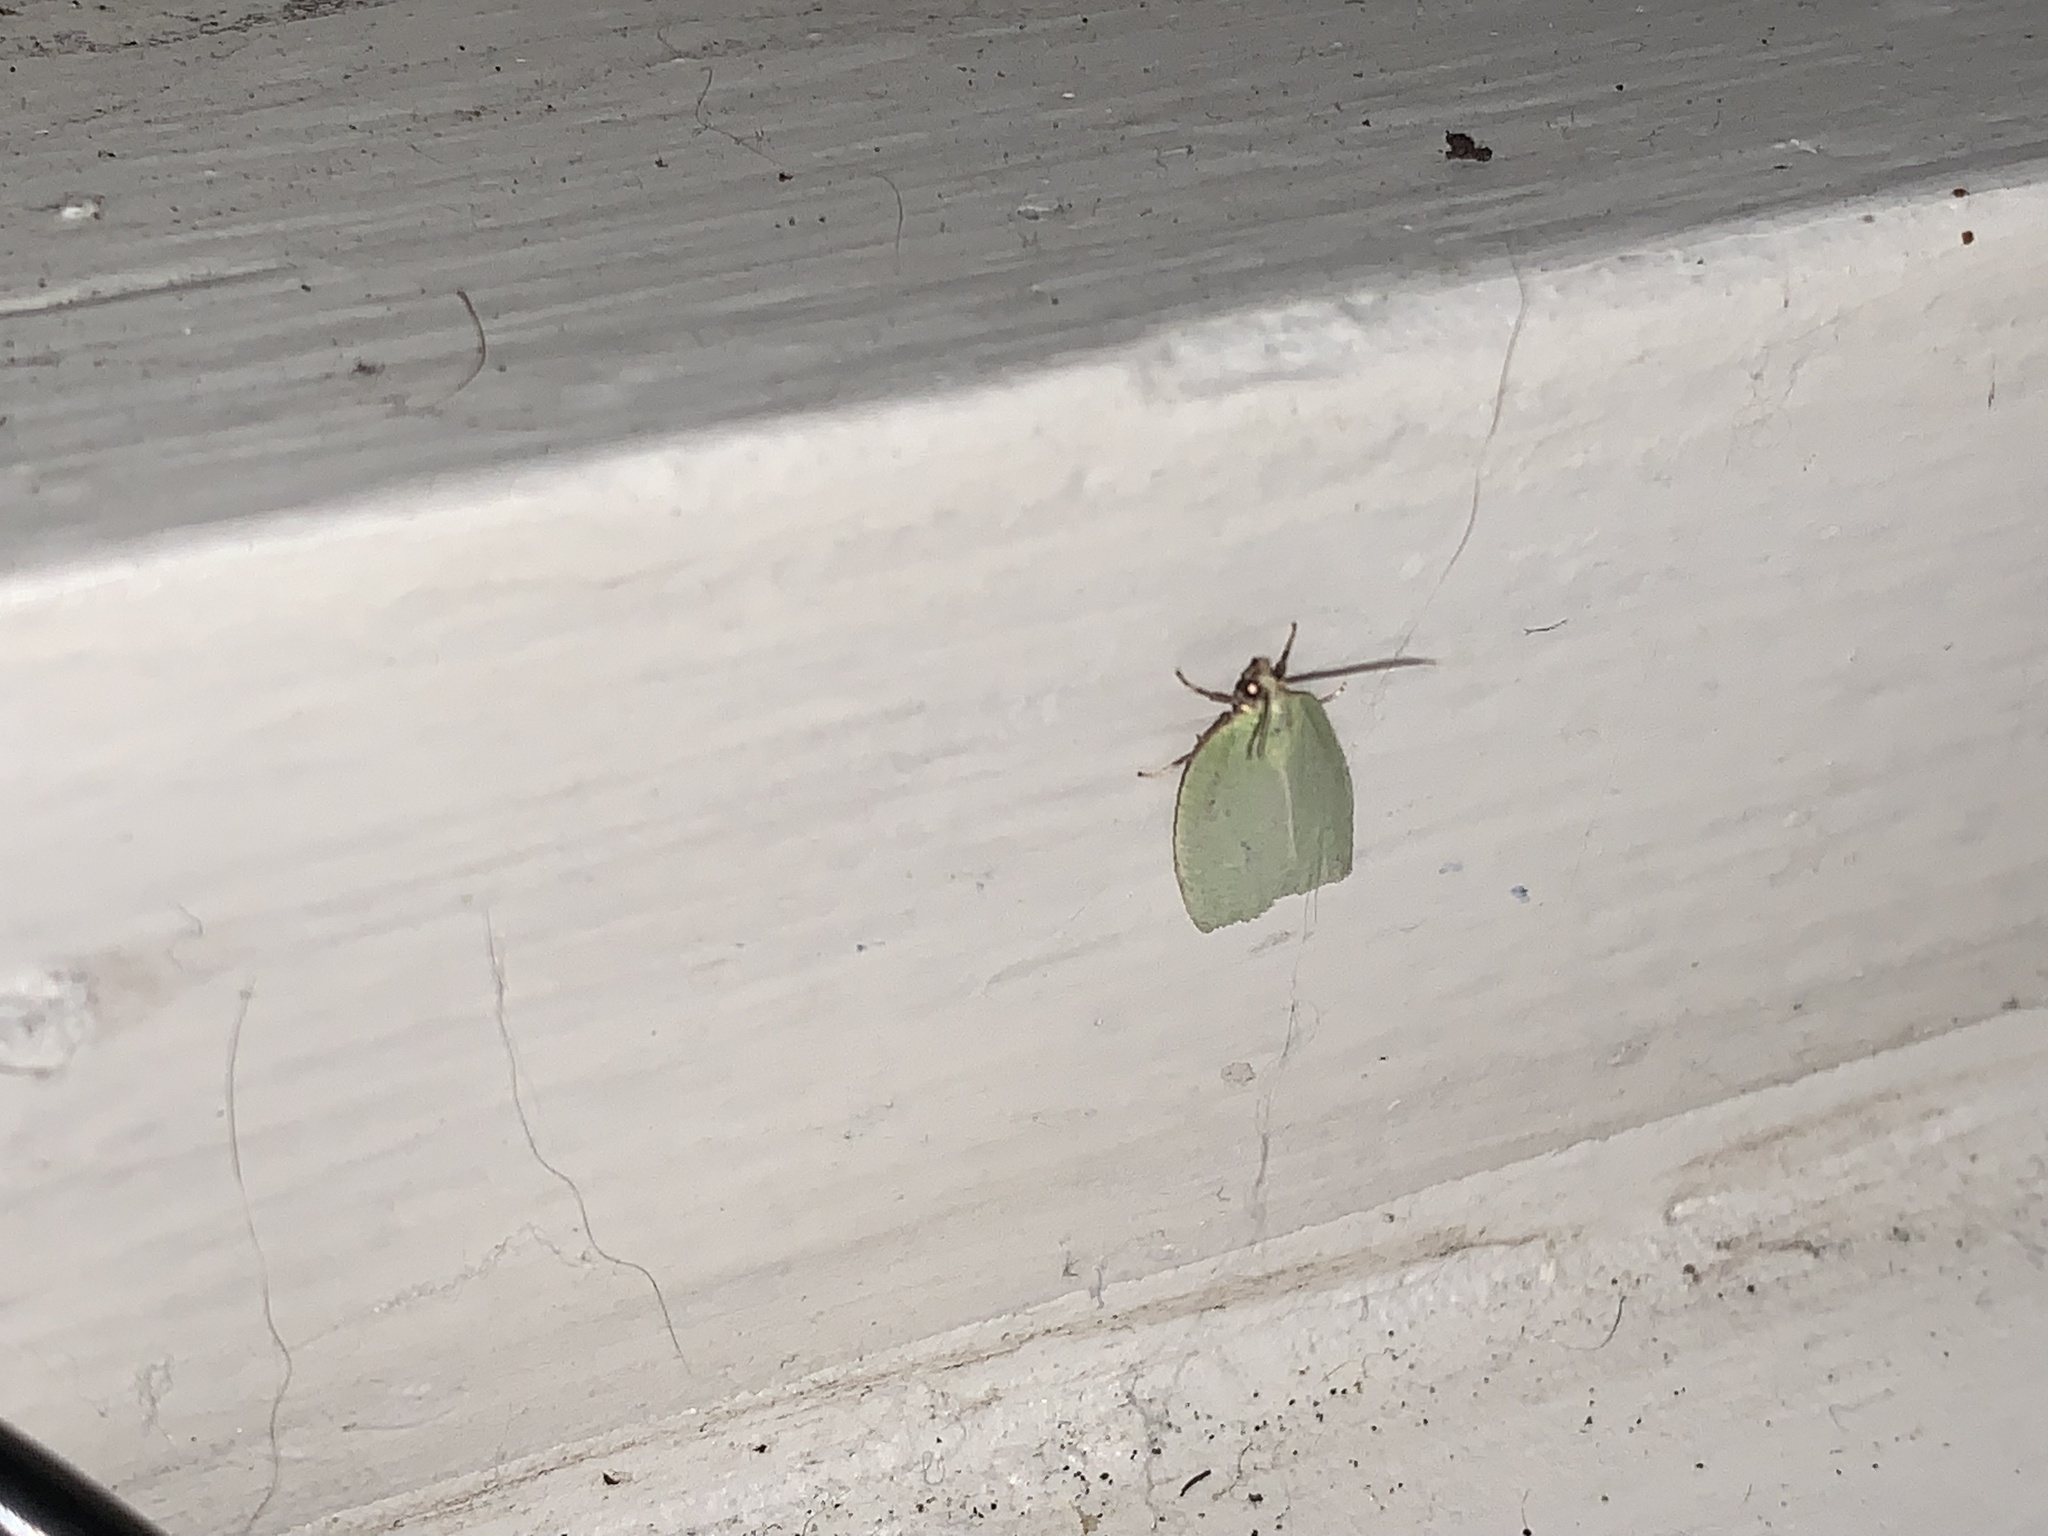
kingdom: Animalia
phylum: Arthropoda
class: Insecta
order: Lepidoptera
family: Tortricidae
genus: Tortrix
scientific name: Tortrix viridana
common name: Green oak tortrix
